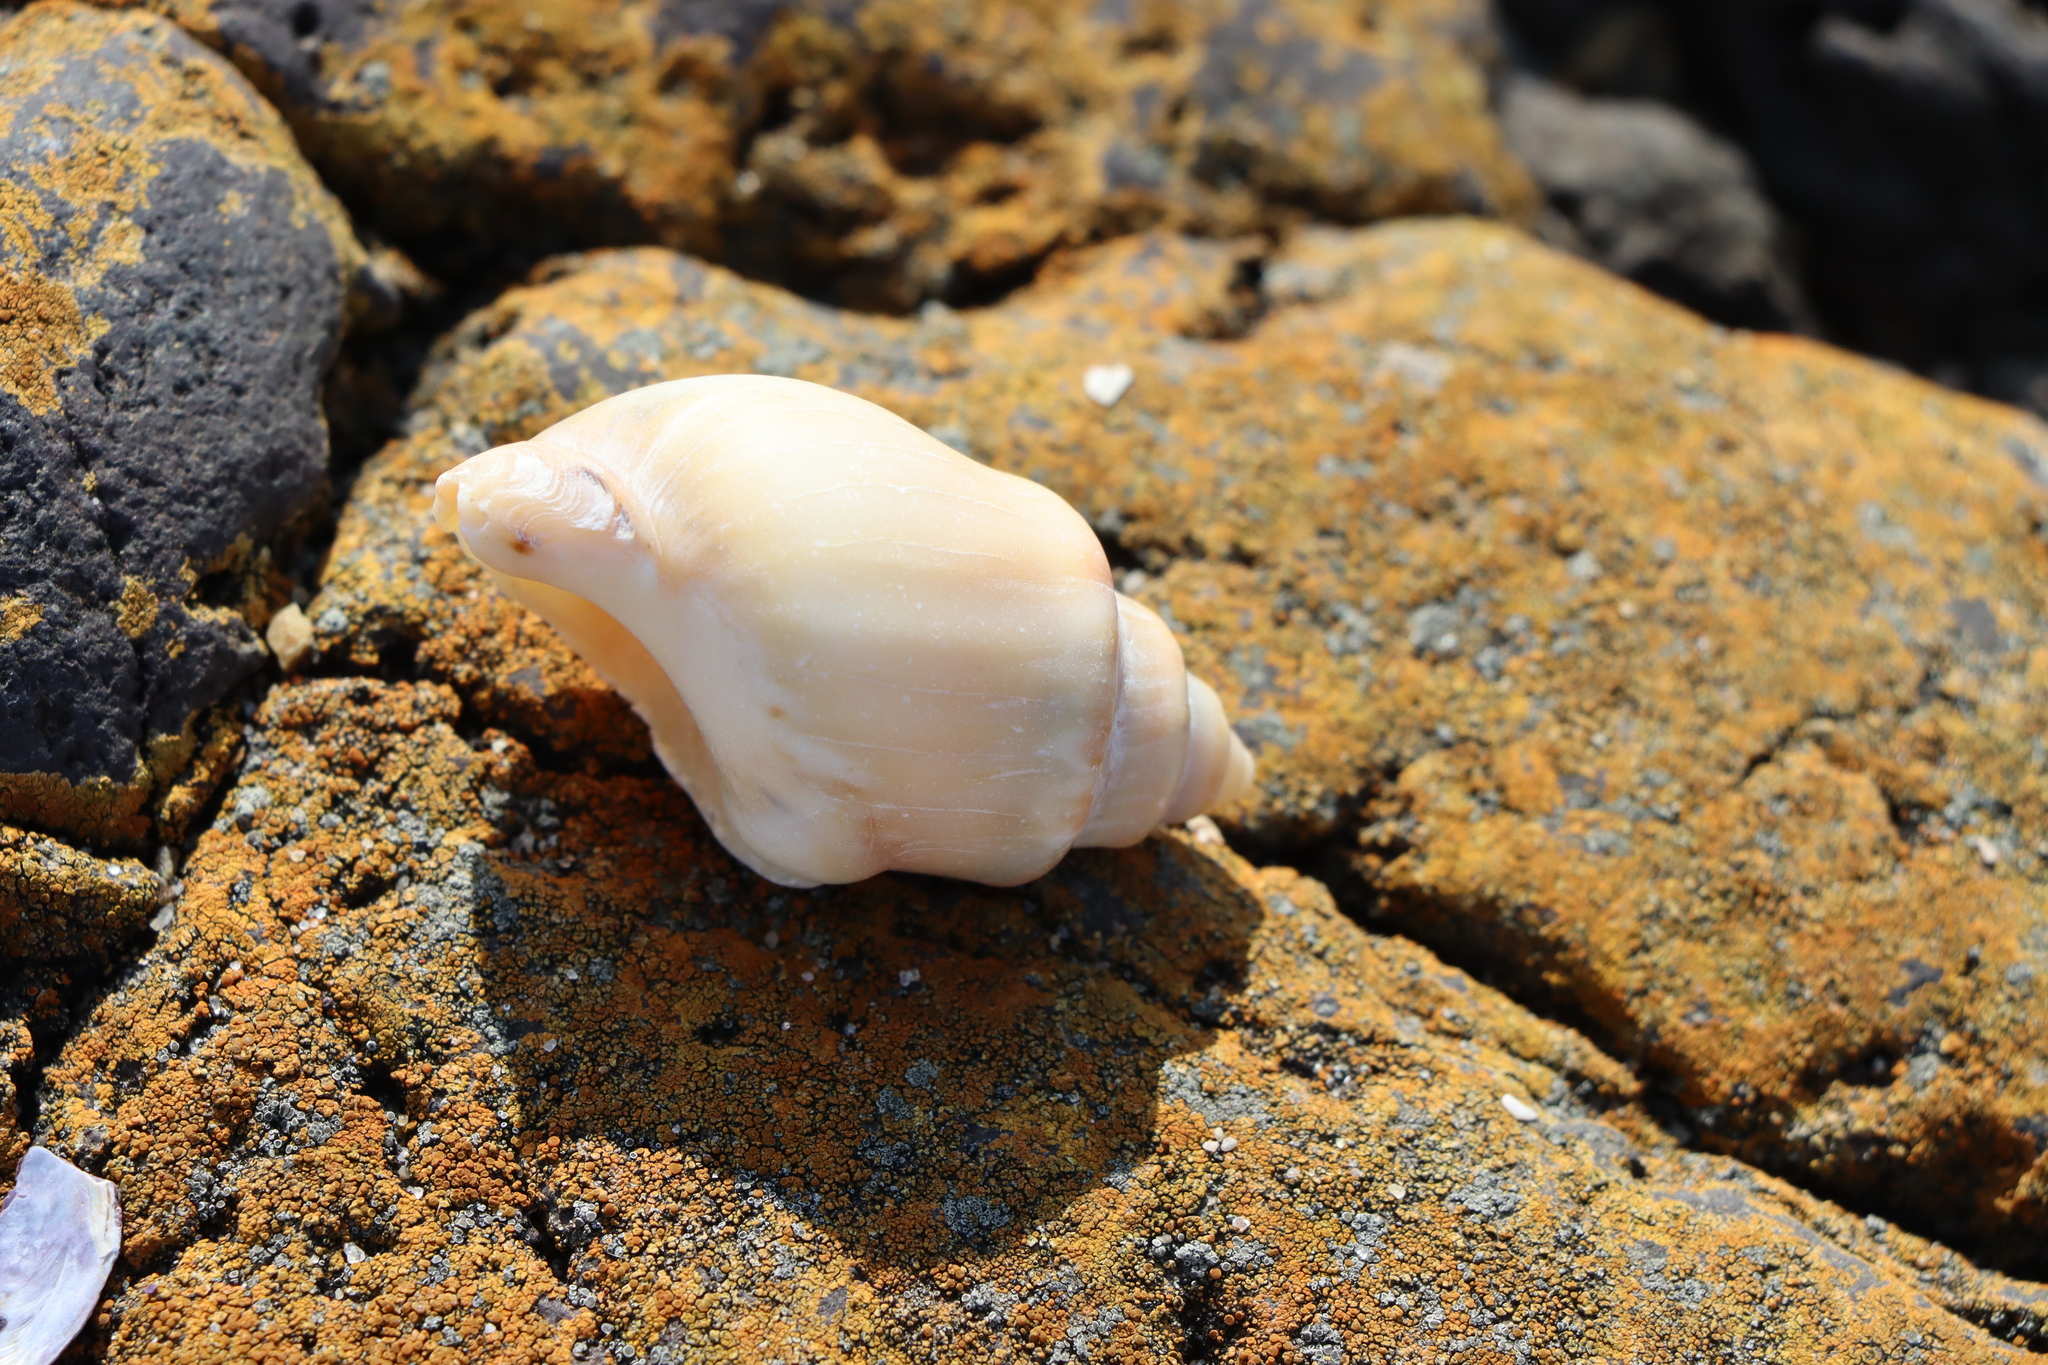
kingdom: Animalia
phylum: Mollusca
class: Gastropoda
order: Neogastropoda
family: Buccinanopsidae
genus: Buccinanops
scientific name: Buccinanops cochlidium
